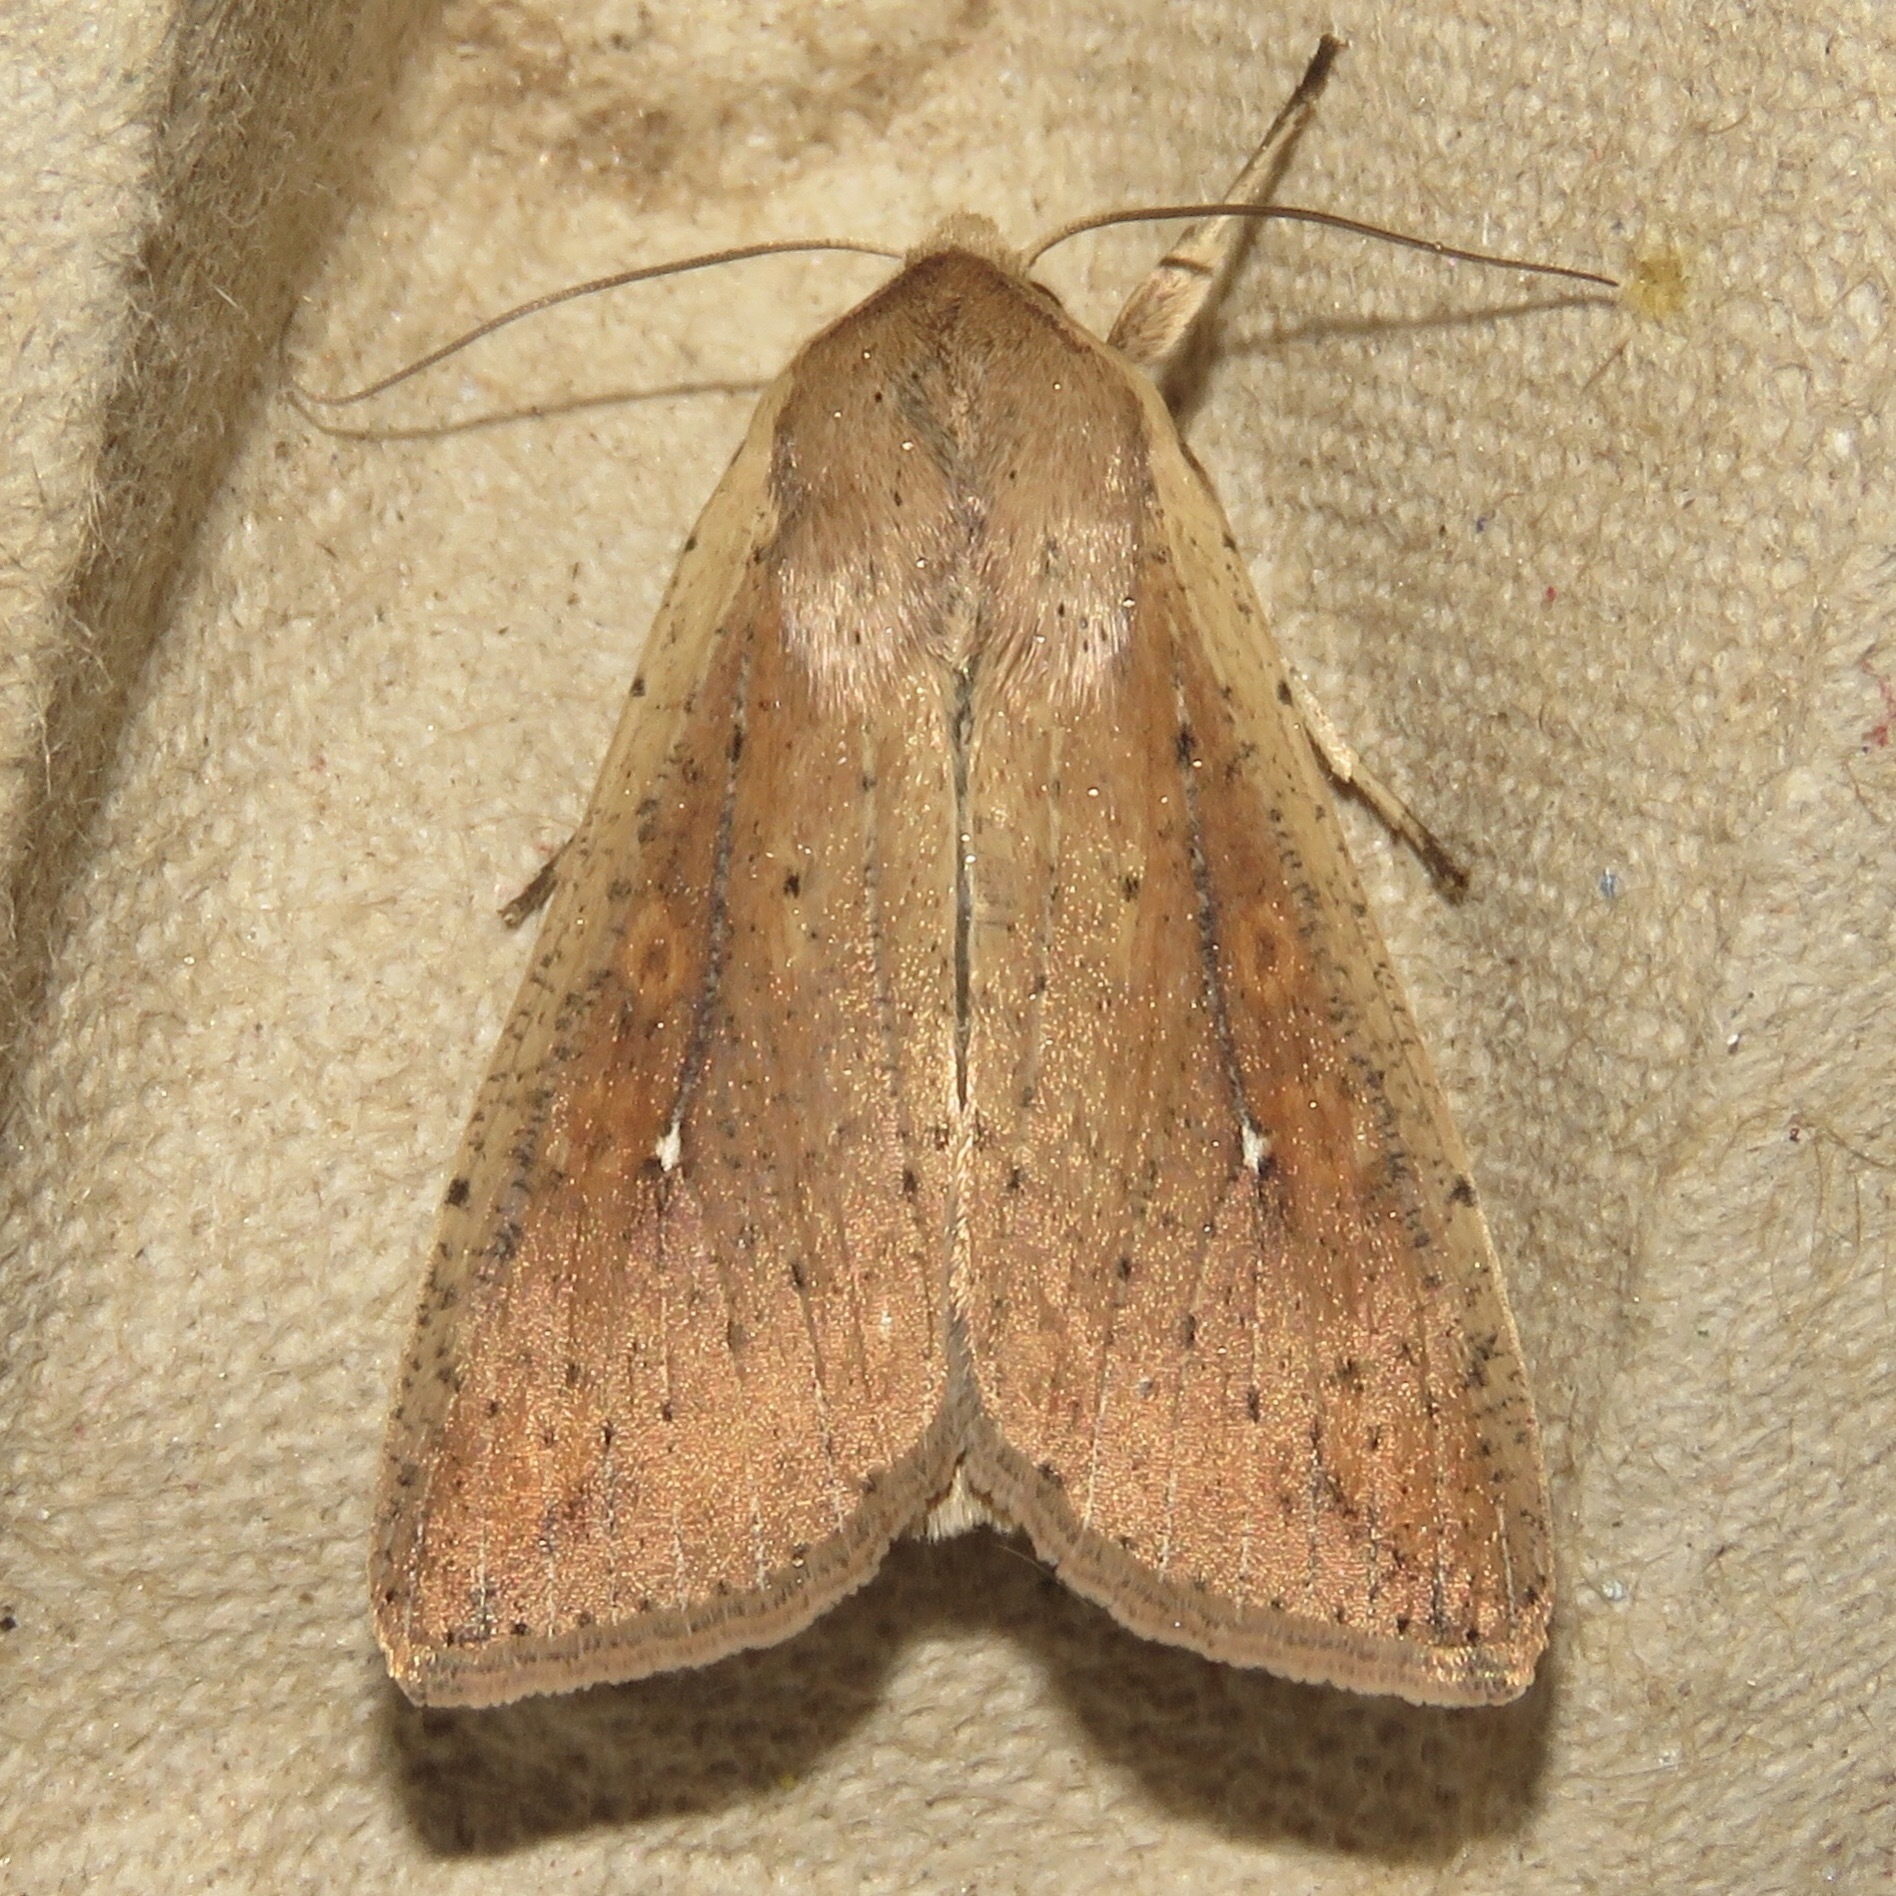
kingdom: Animalia
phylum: Arthropoda
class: Insecta
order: Lepidoptera
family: Noctuidae
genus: Mythimna
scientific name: Mythimna unipuncta
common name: White-speck
